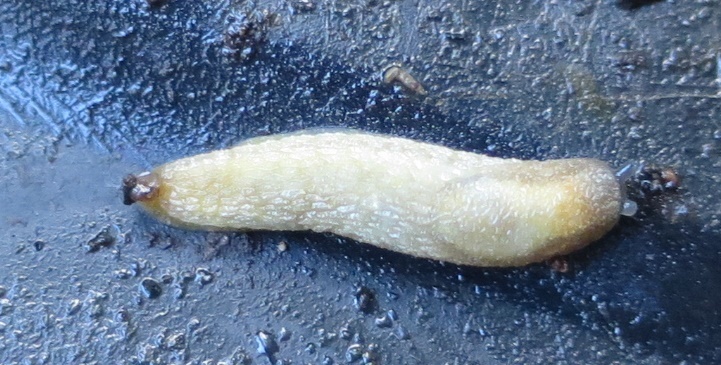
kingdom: Animalia
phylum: Mollusca
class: Gastropoda
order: Stylommatophora
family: Arionidae
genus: Arion
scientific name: Arion intermedius
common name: Hedgehog slug
